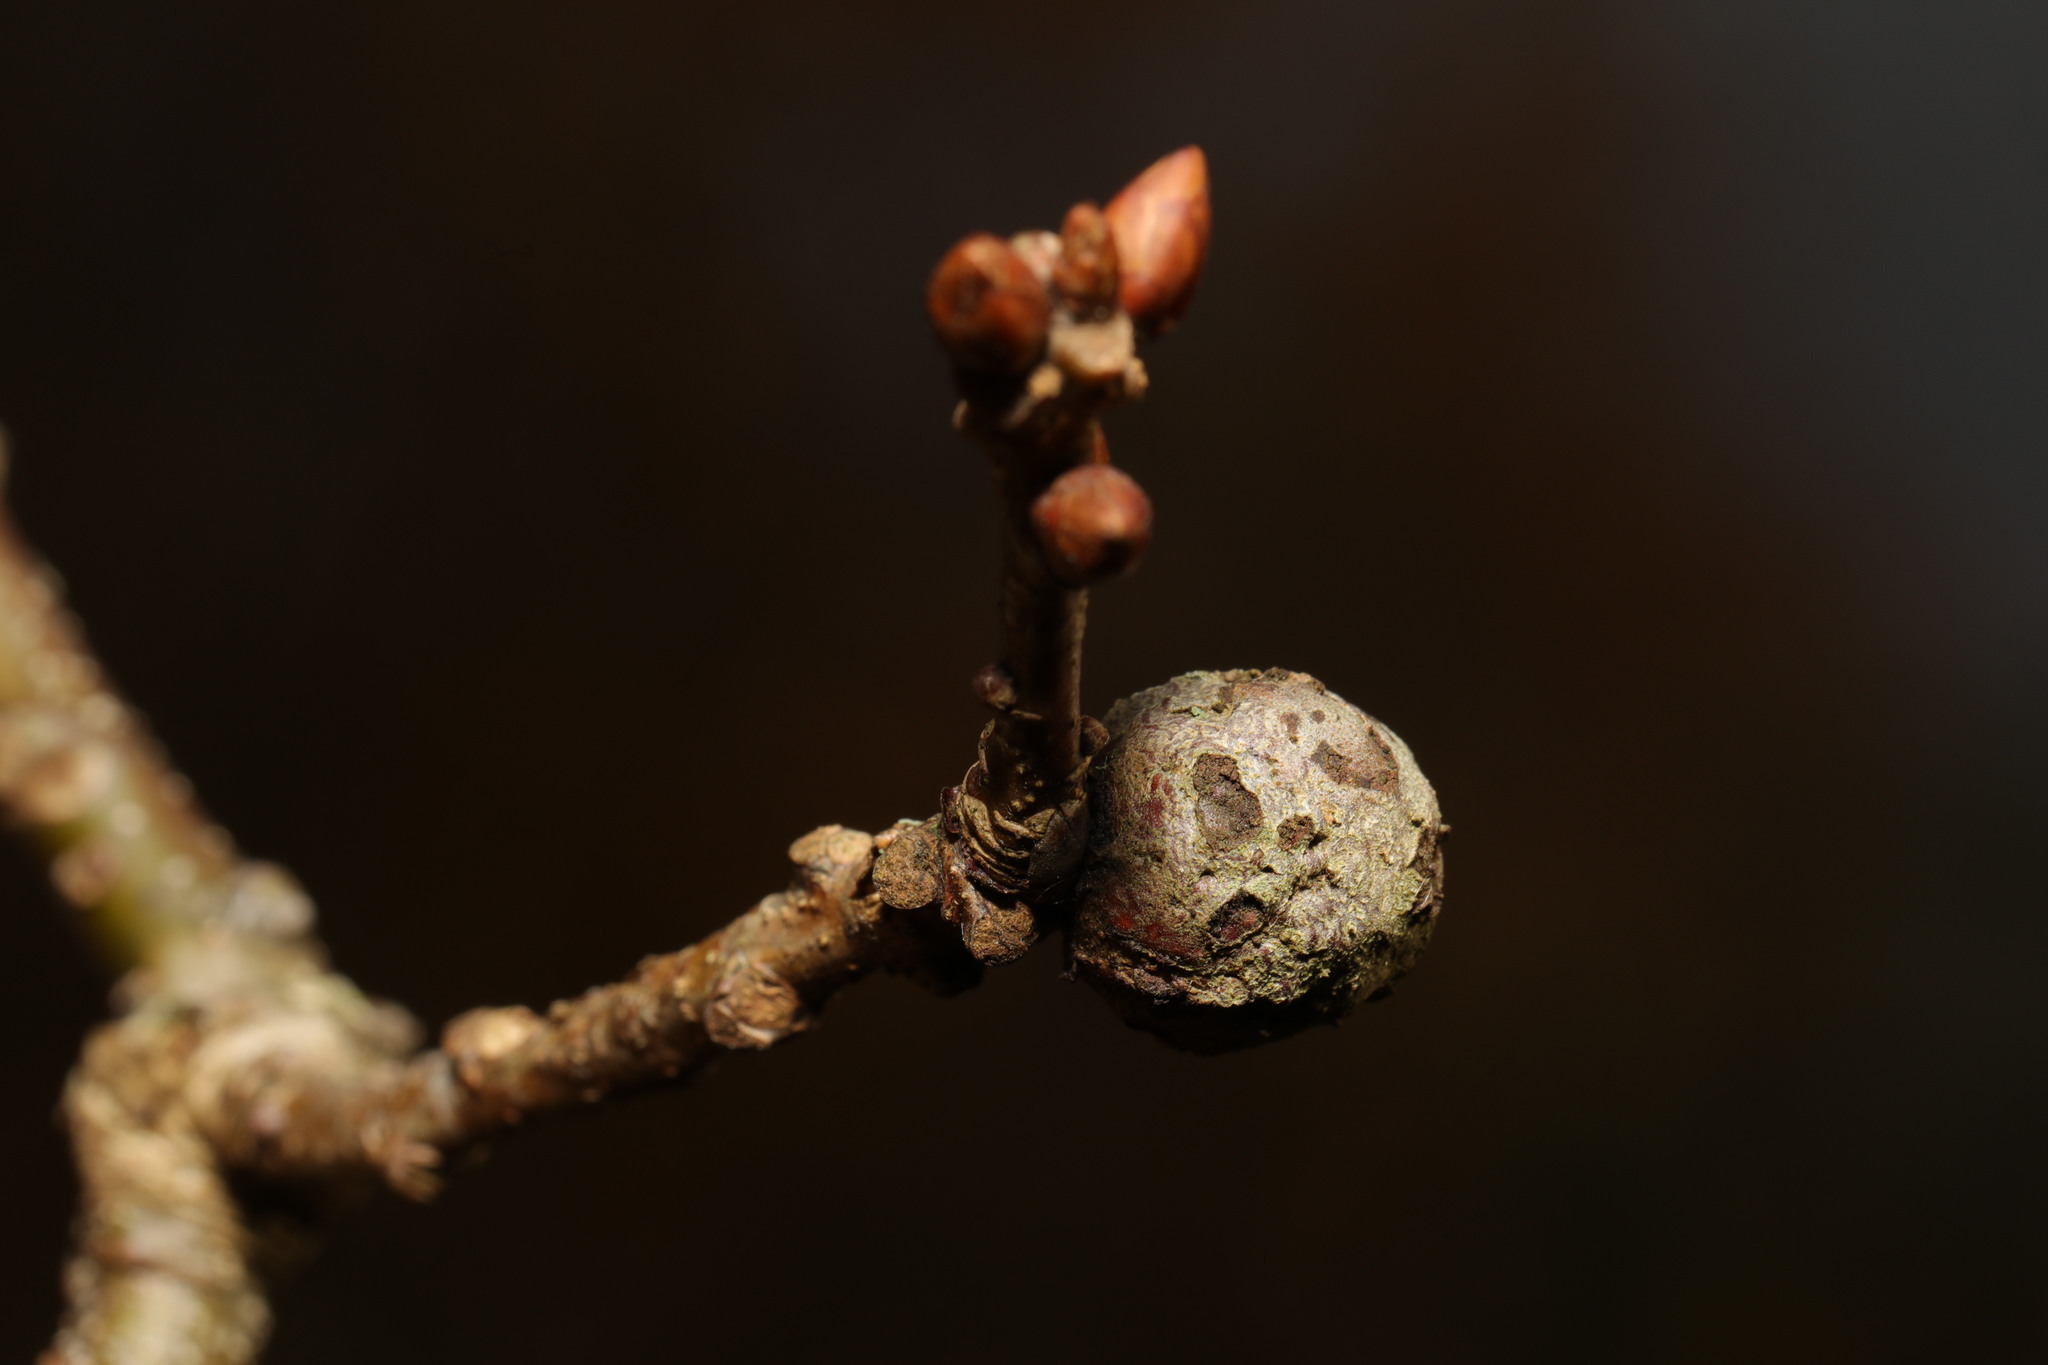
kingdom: Animalia
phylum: Arthropoda
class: Insecta
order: Hymenoptera
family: Cynipidae
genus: Andricus
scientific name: Andricus lignicolus
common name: Cola-nut gall
